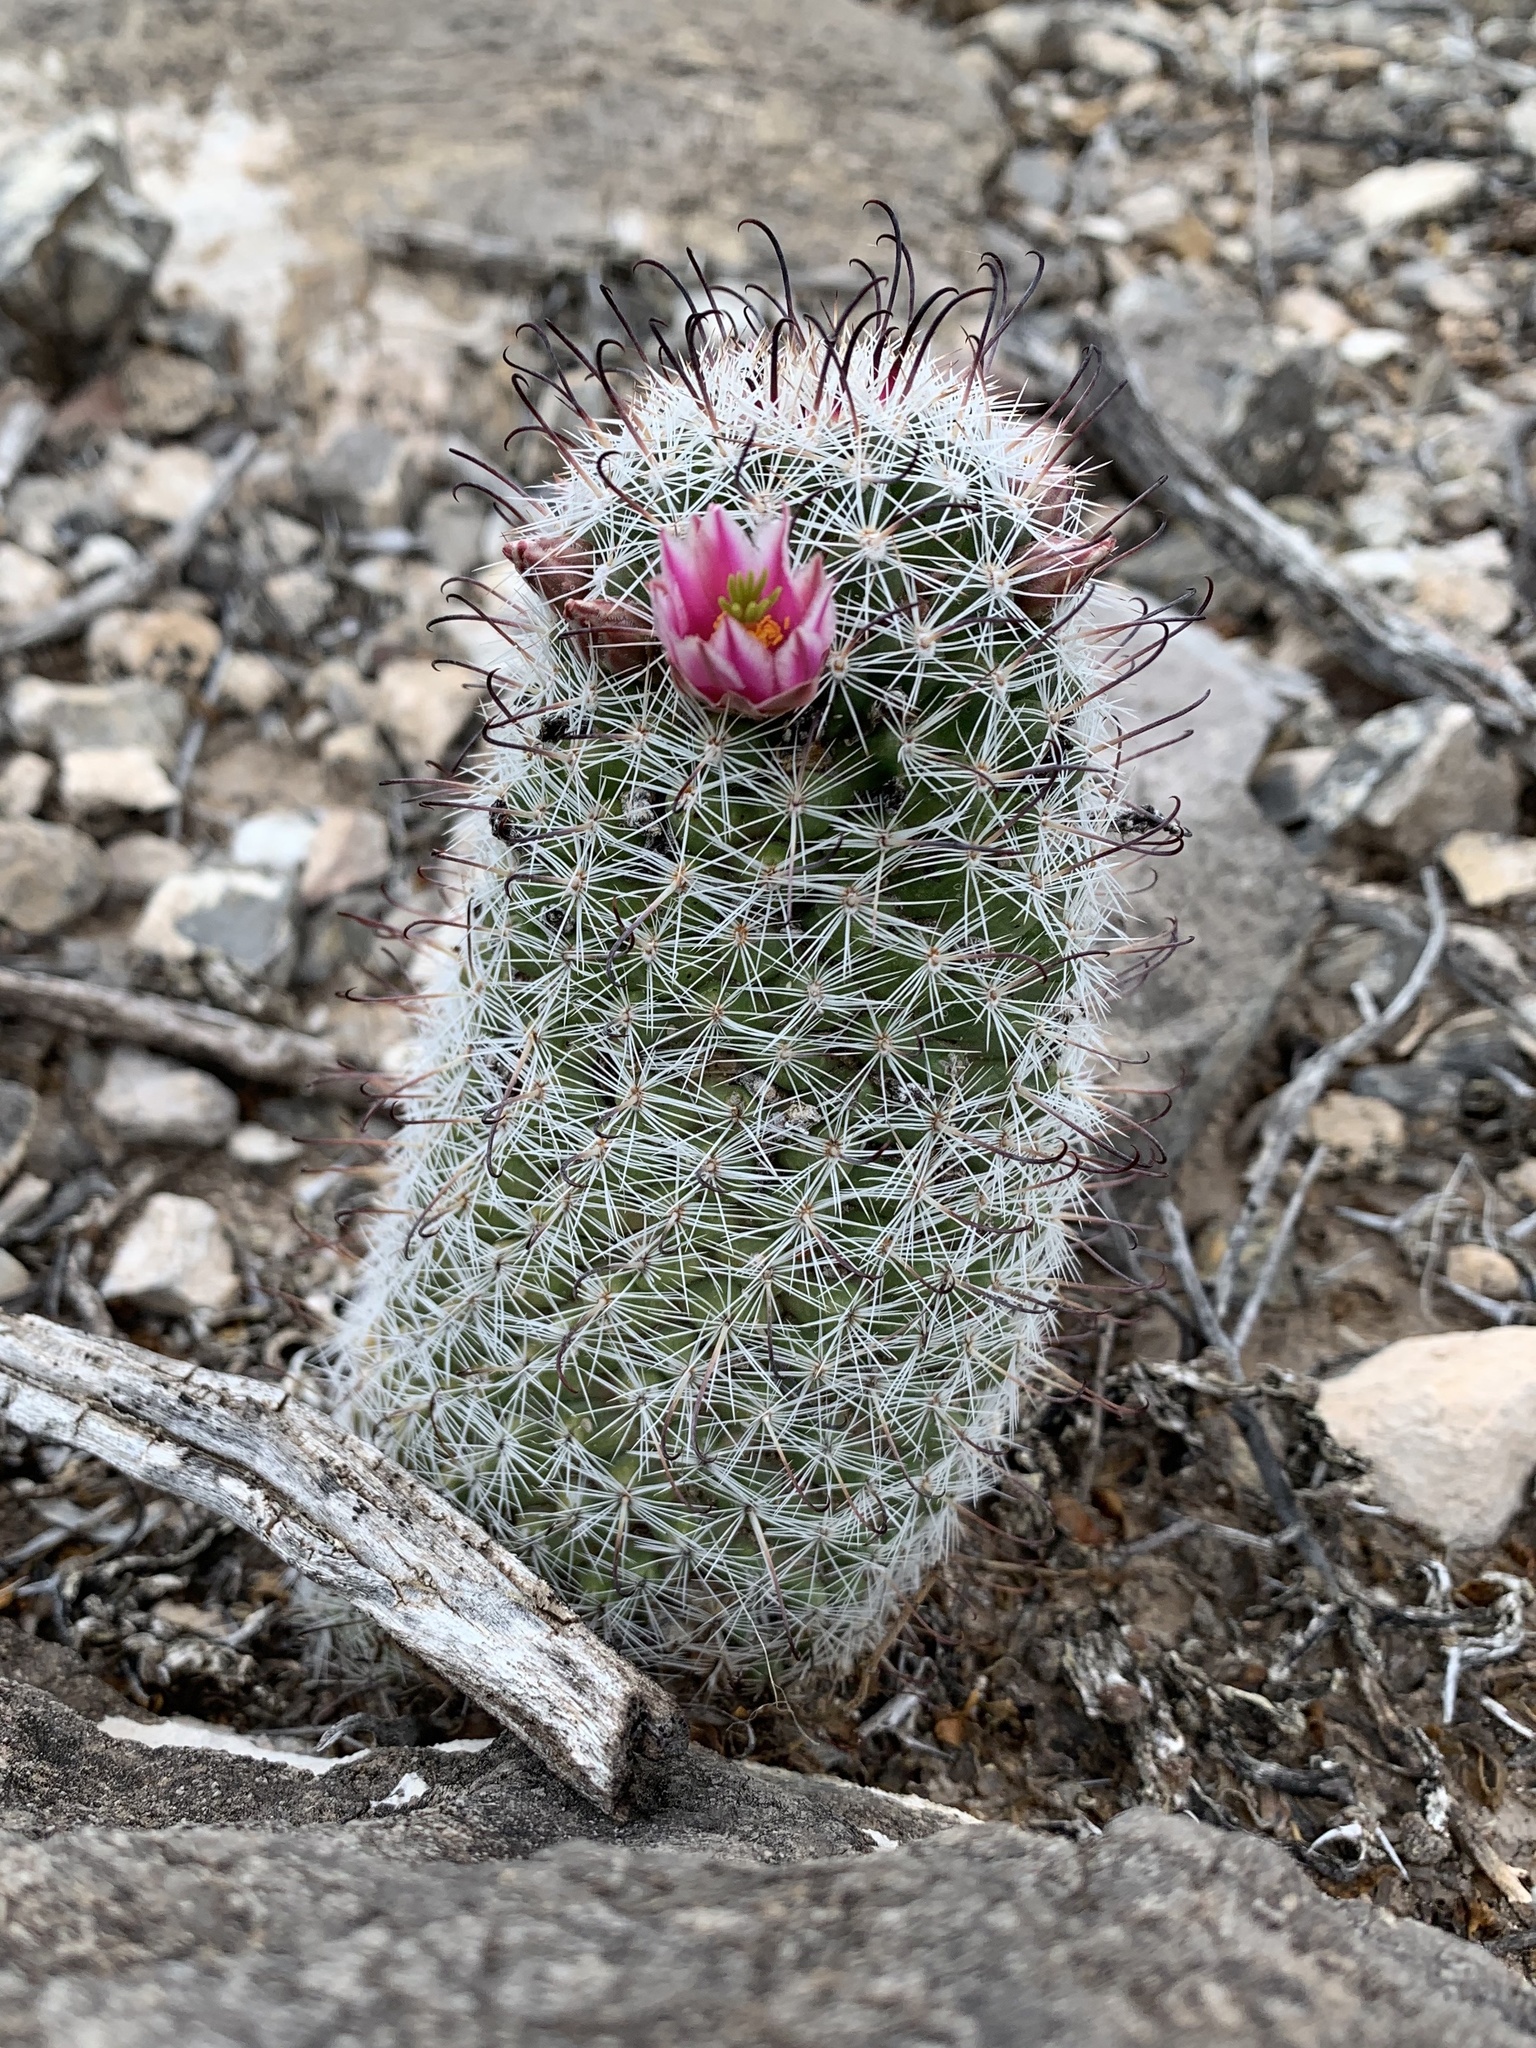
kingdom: Plantae
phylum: Tracheophyta
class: Magnoliopsida
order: Caryophyllales
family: Cactaceae
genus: Cochemiea
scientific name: Cochemiea grahamii
